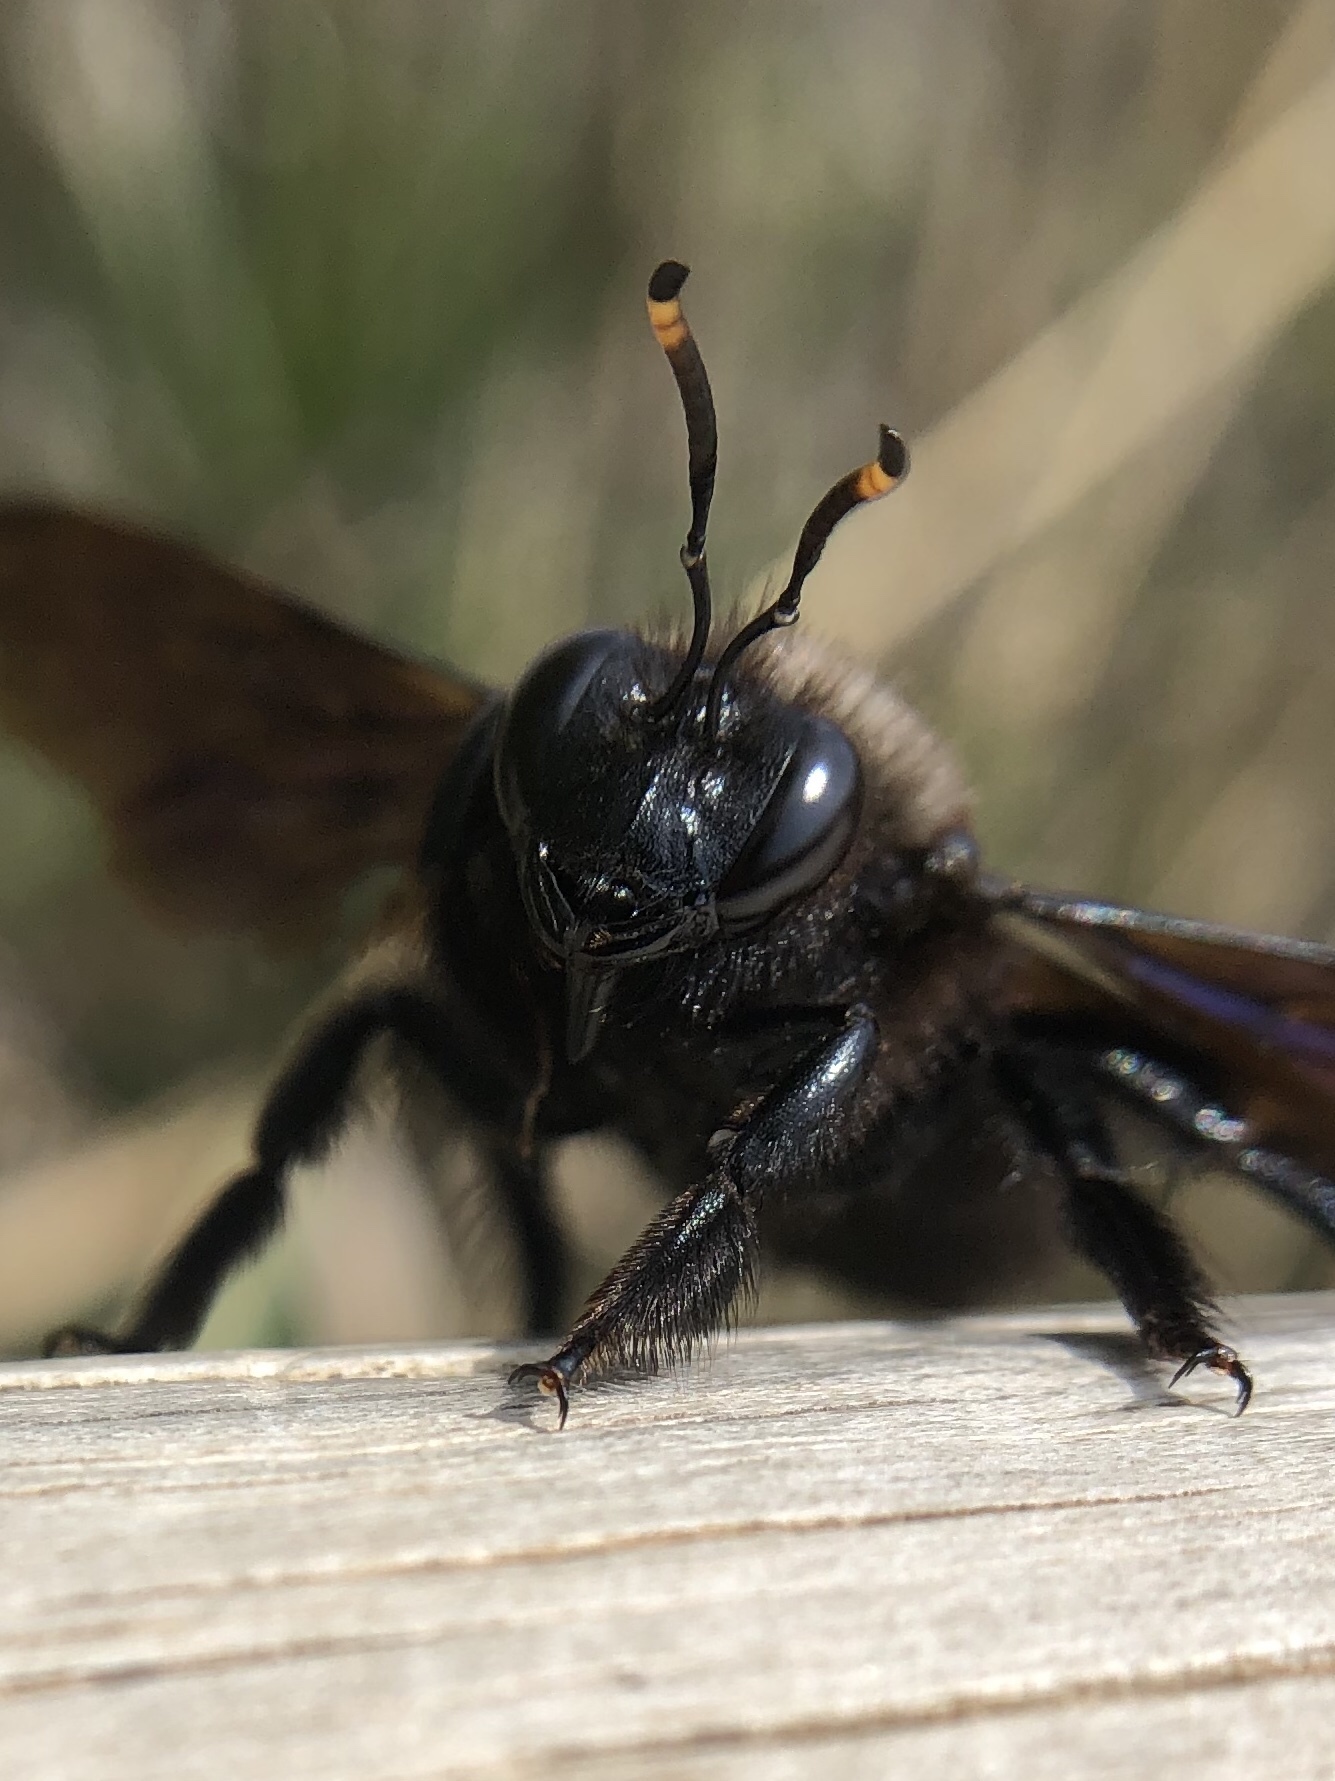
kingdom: Animalia
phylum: Arthropoda
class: Insecta
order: Hymenoptera
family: Apidae
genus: Xylocopa
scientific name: Xylocopa violacea
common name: Violet carpenter bee
